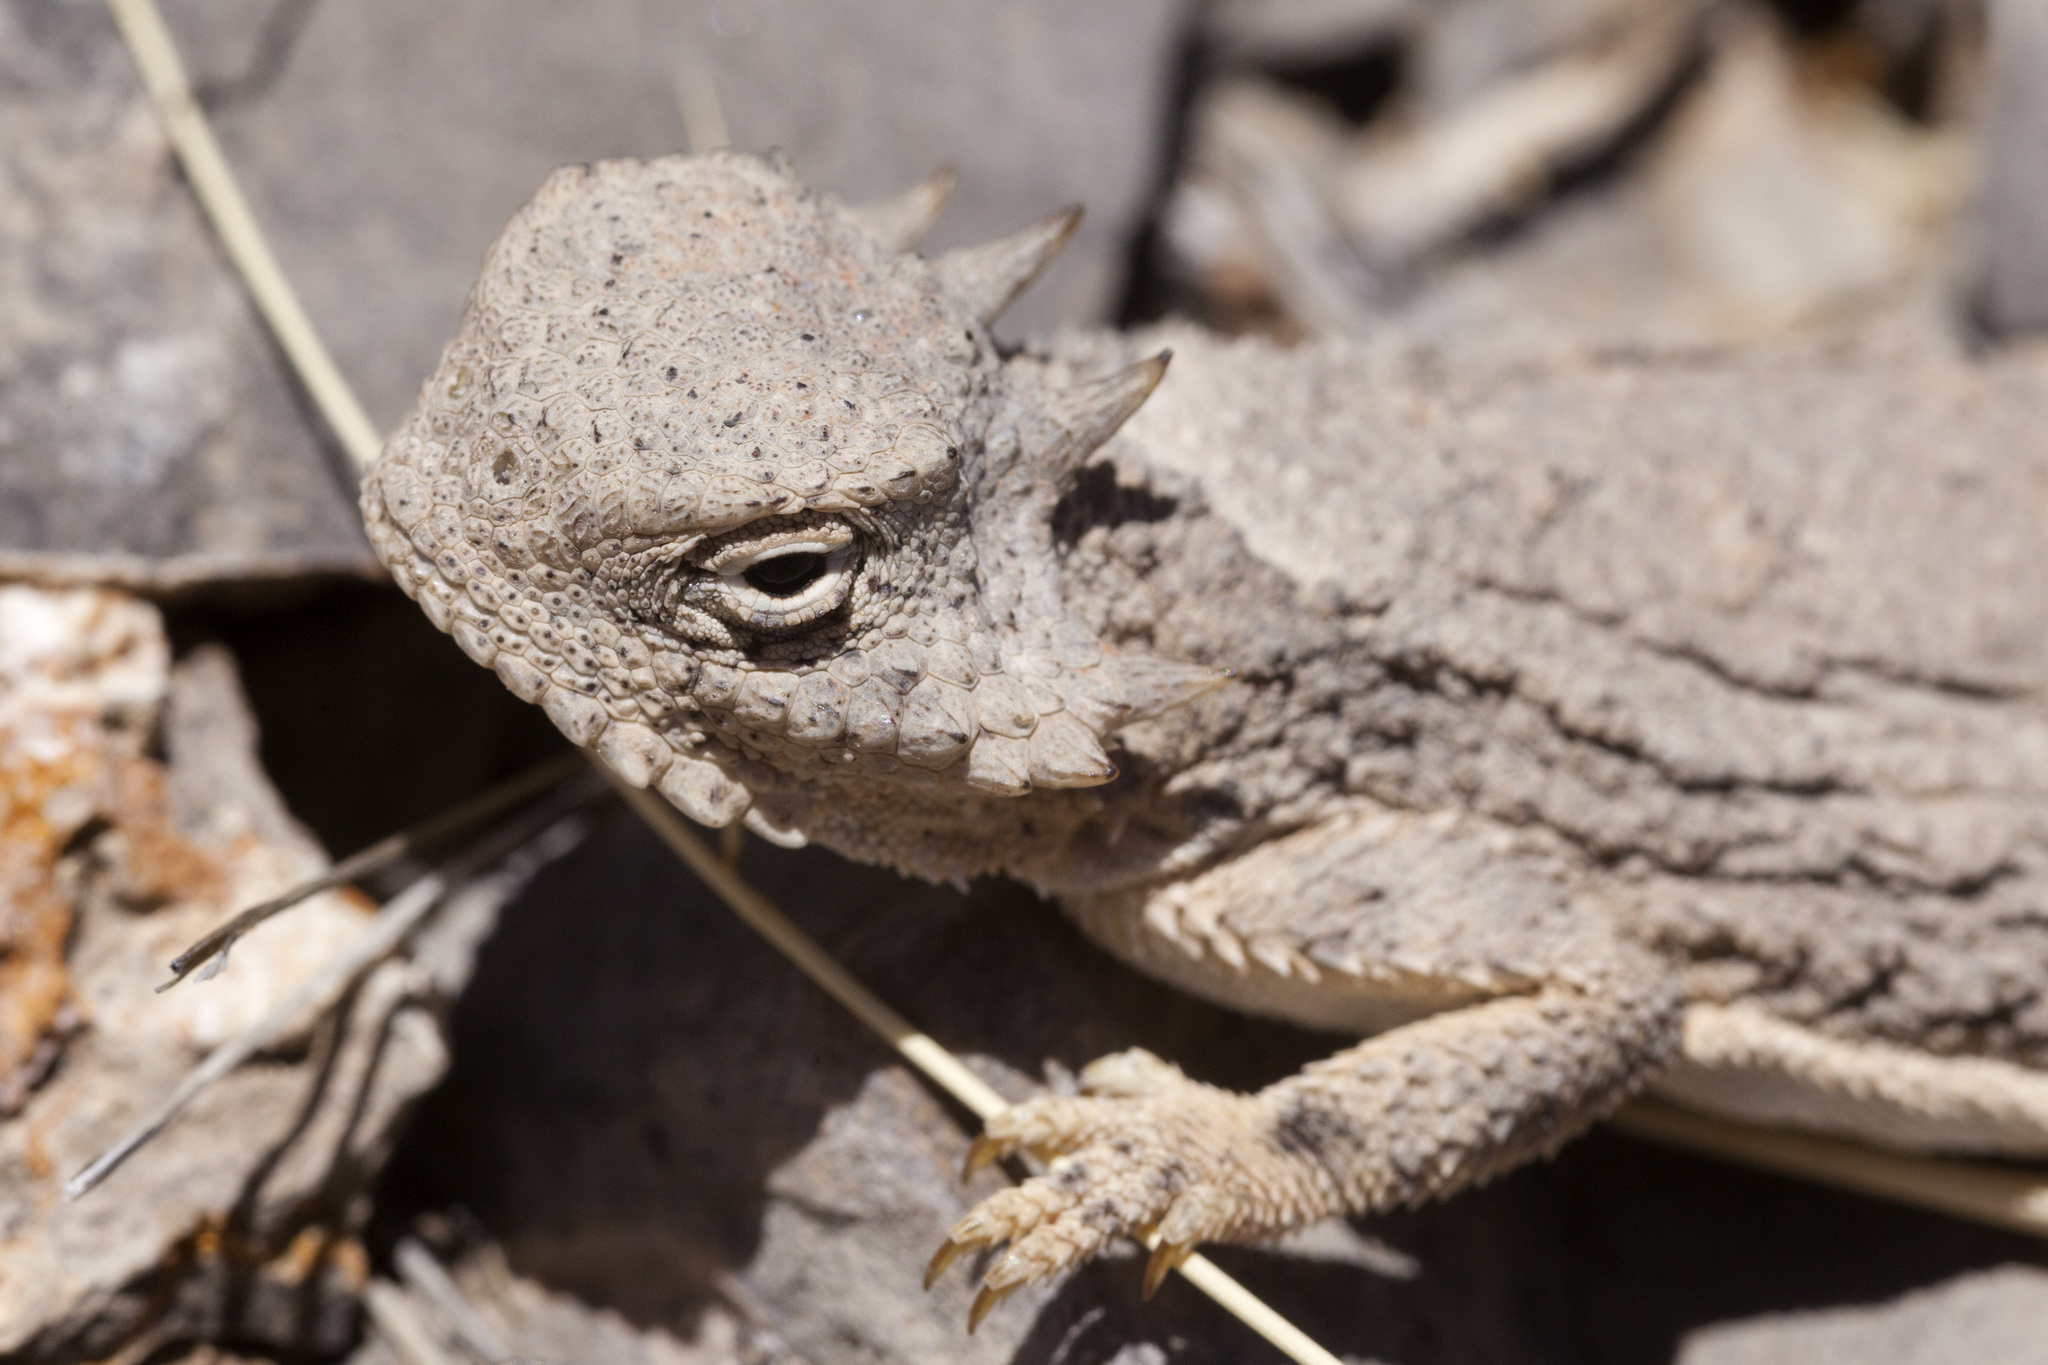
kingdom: Animalia
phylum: Chordata
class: Squamata
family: Phrynosomatidae
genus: Phrynosoma
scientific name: Phrynosoma modestum
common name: Roundtail horned lizard
